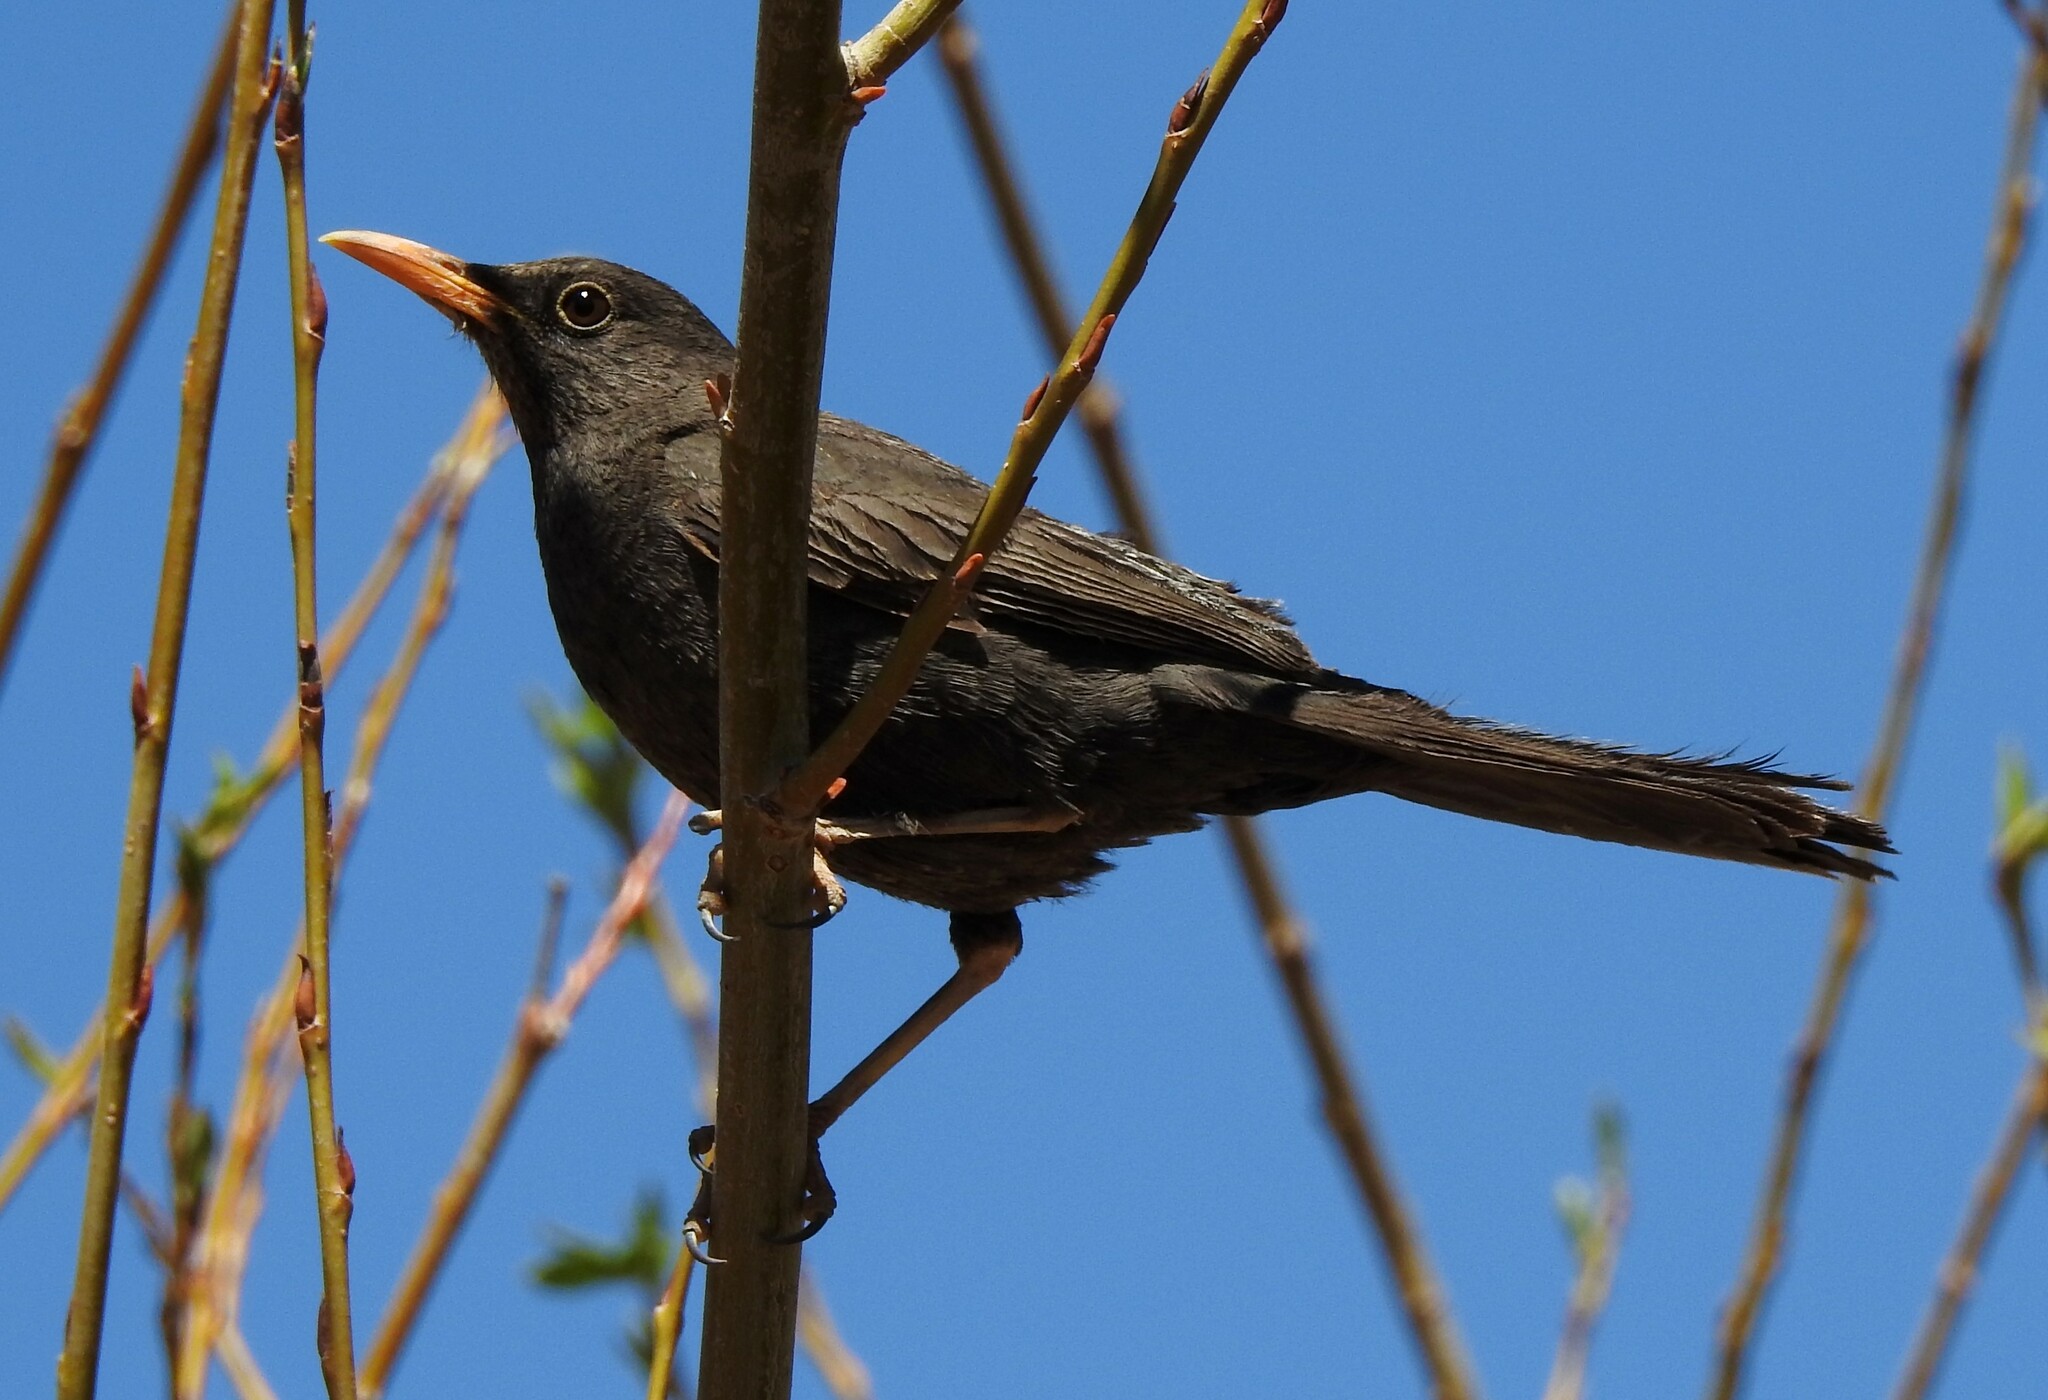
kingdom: Animalia
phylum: Chordata
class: Aves
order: Passeriformes
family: Turdidae
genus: Turdus
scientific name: Turdus chiguanco
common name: Chiguanco thrush
